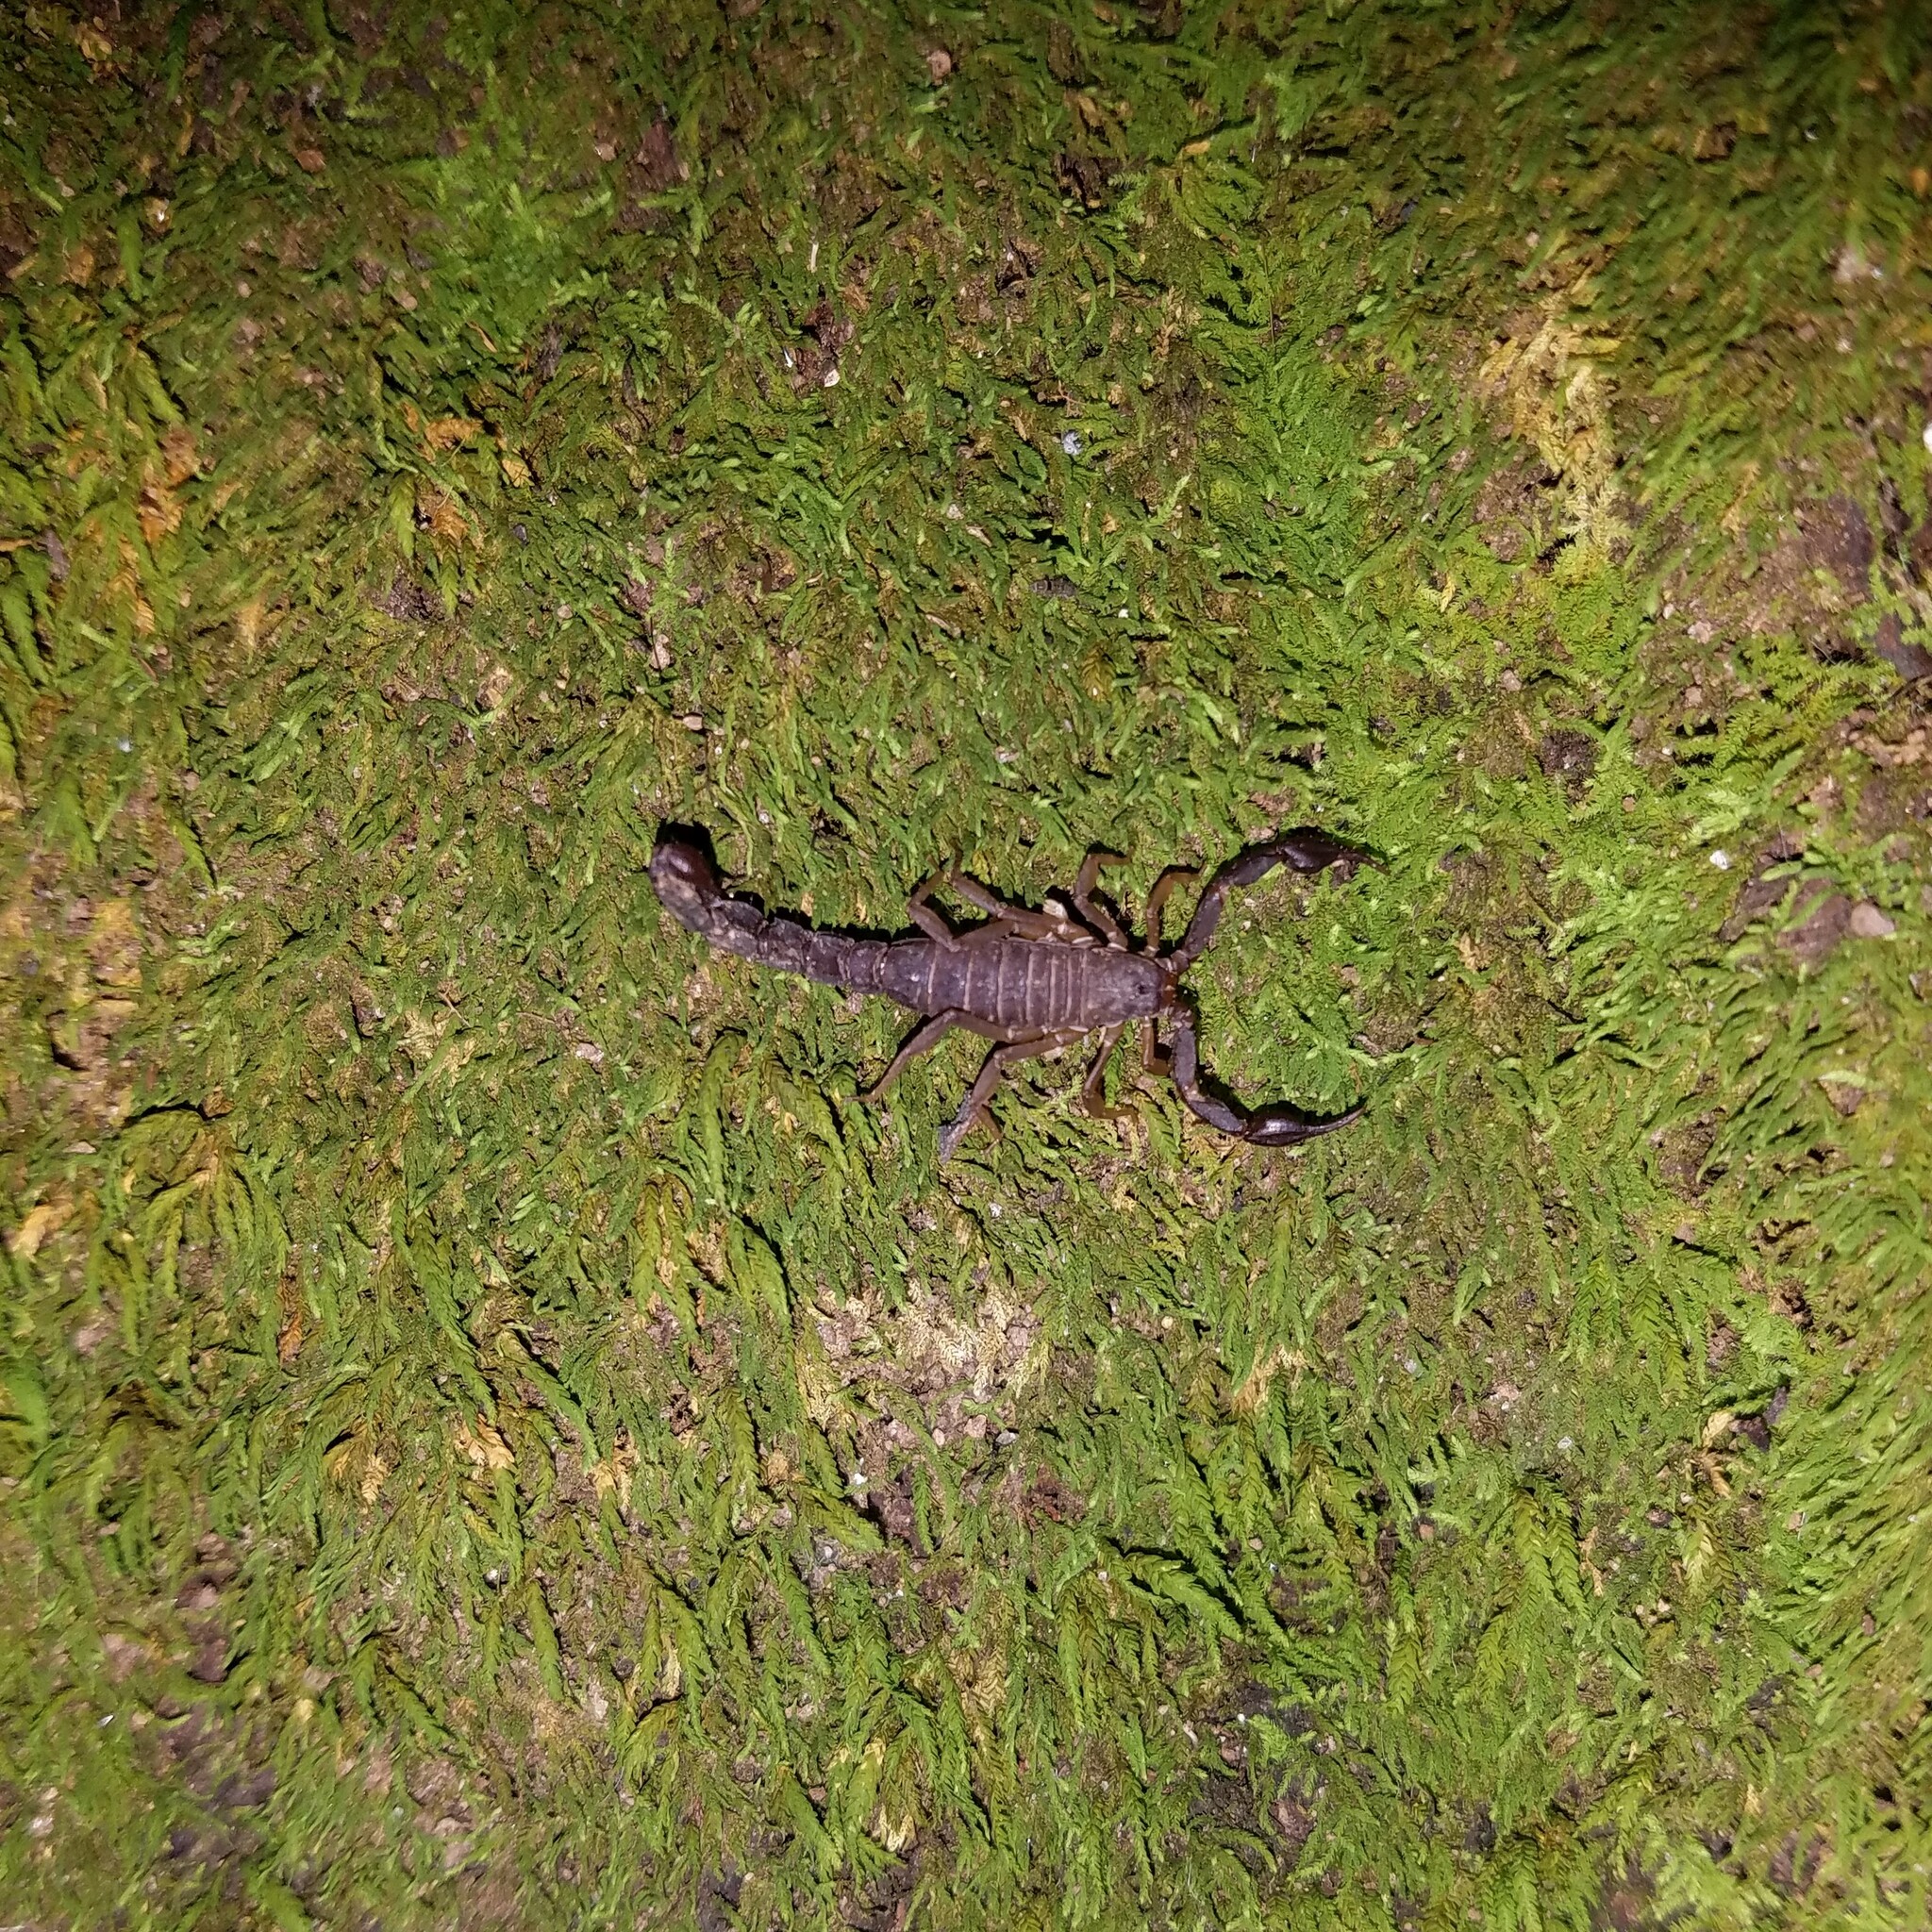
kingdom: Animalia
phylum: Arthropoda
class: Arachnida
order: Scorpiones
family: Vaejovidae
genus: Vaejovis
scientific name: Vaejovis carolinianus
